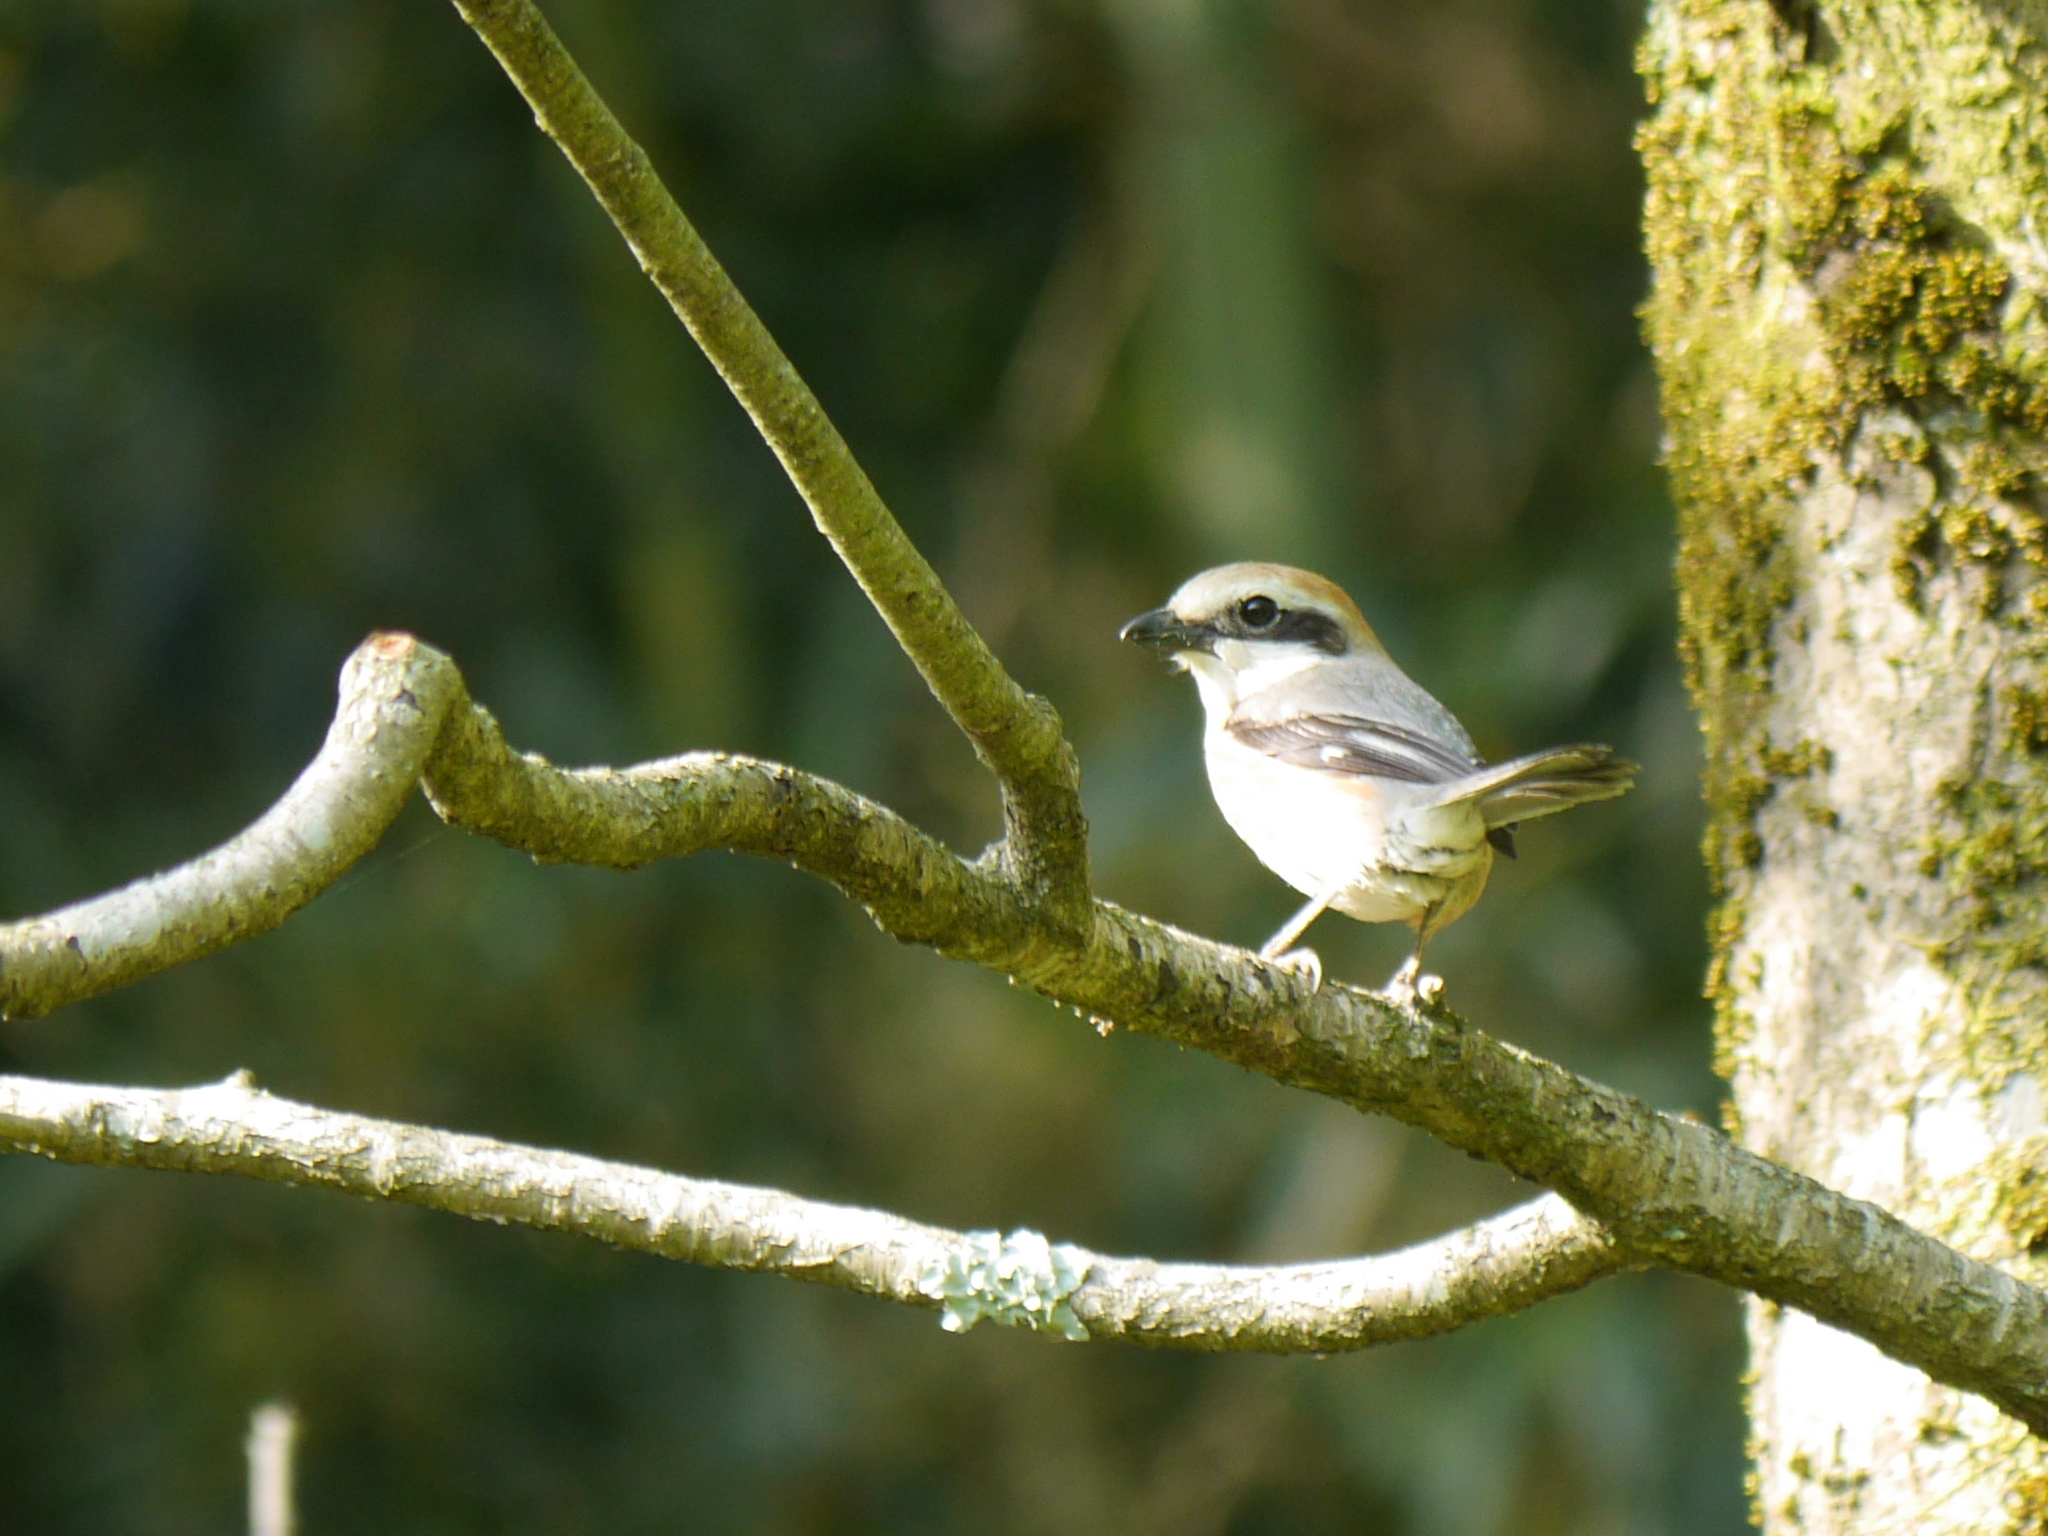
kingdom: Animalia
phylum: Chordata
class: Aves
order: Passeriformes
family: Laniidae
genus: Lanius
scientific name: Lanius bucephalus
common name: Bull-headed shrike
